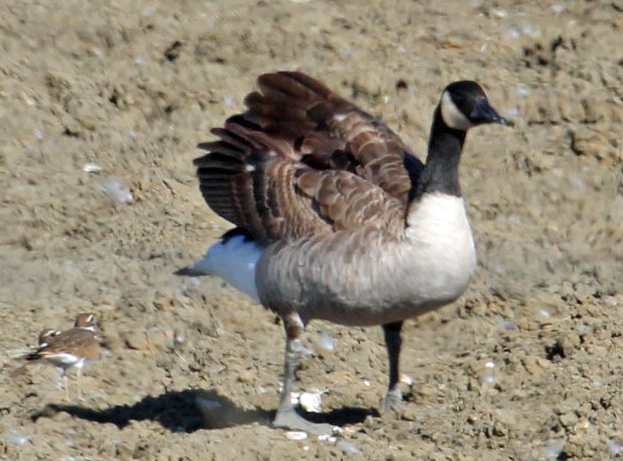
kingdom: Animalia
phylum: Chordata
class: Aves
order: Anseriformes
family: Anatidae
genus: Branta
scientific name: Branta canadensis
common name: Canada goose
